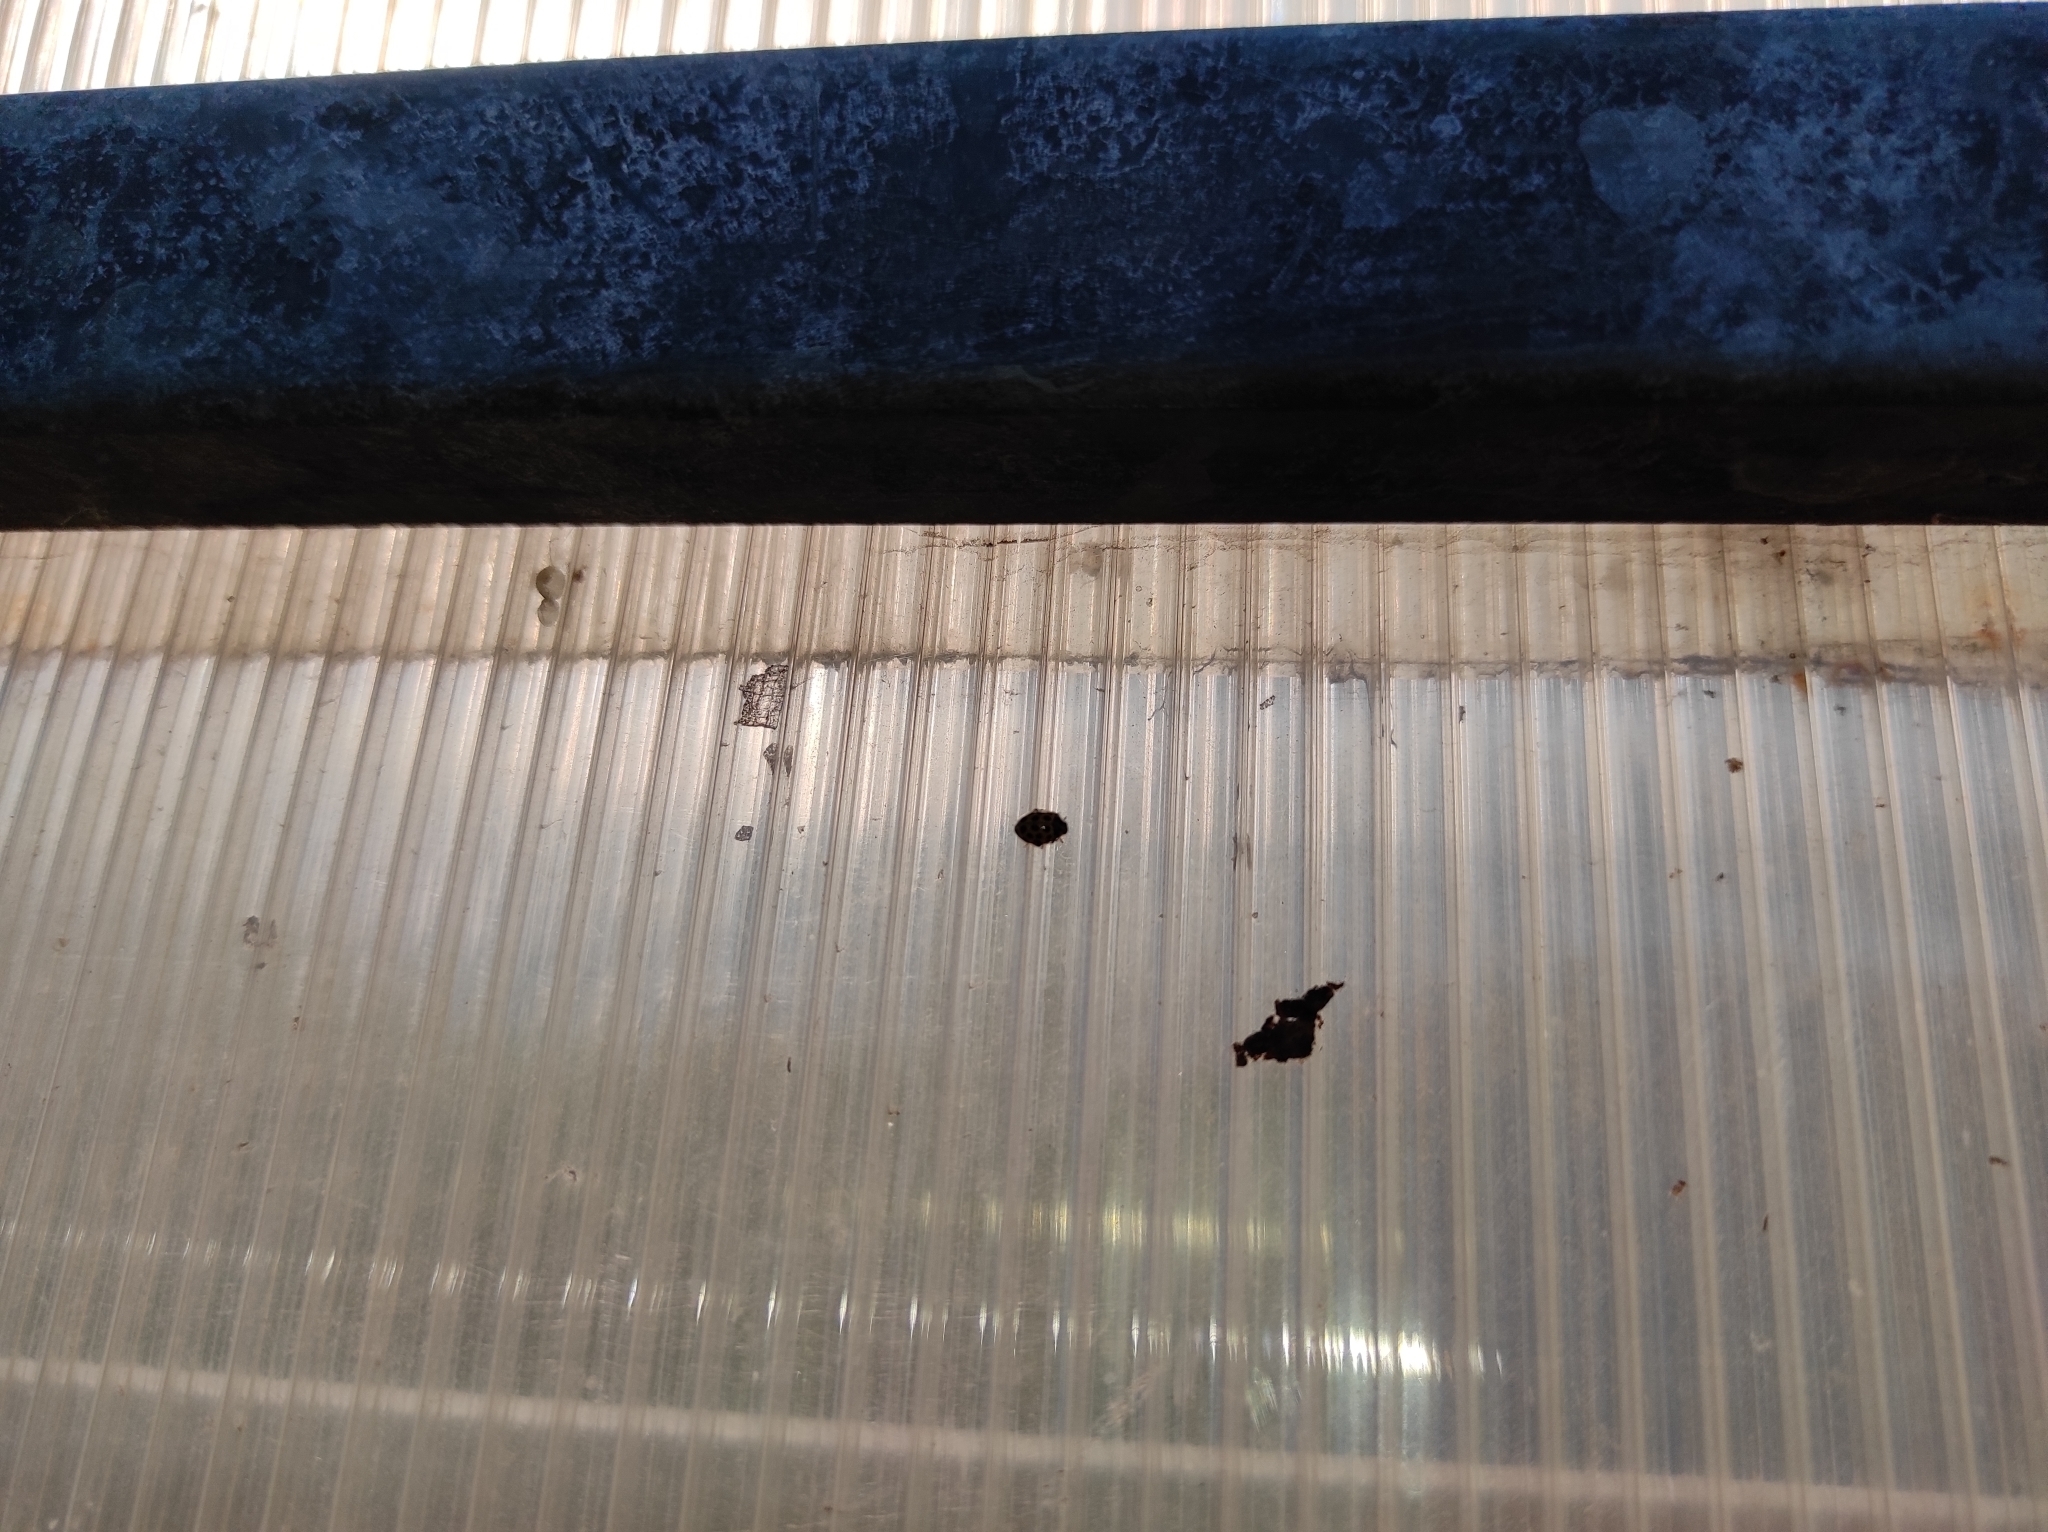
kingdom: Animalia
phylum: Arthropoda
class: Insecta
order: Coleoptera
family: Coccinellidae
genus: Psyllobora
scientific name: Psyllobora vigintiduopunctata
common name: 22-spot ladybird
